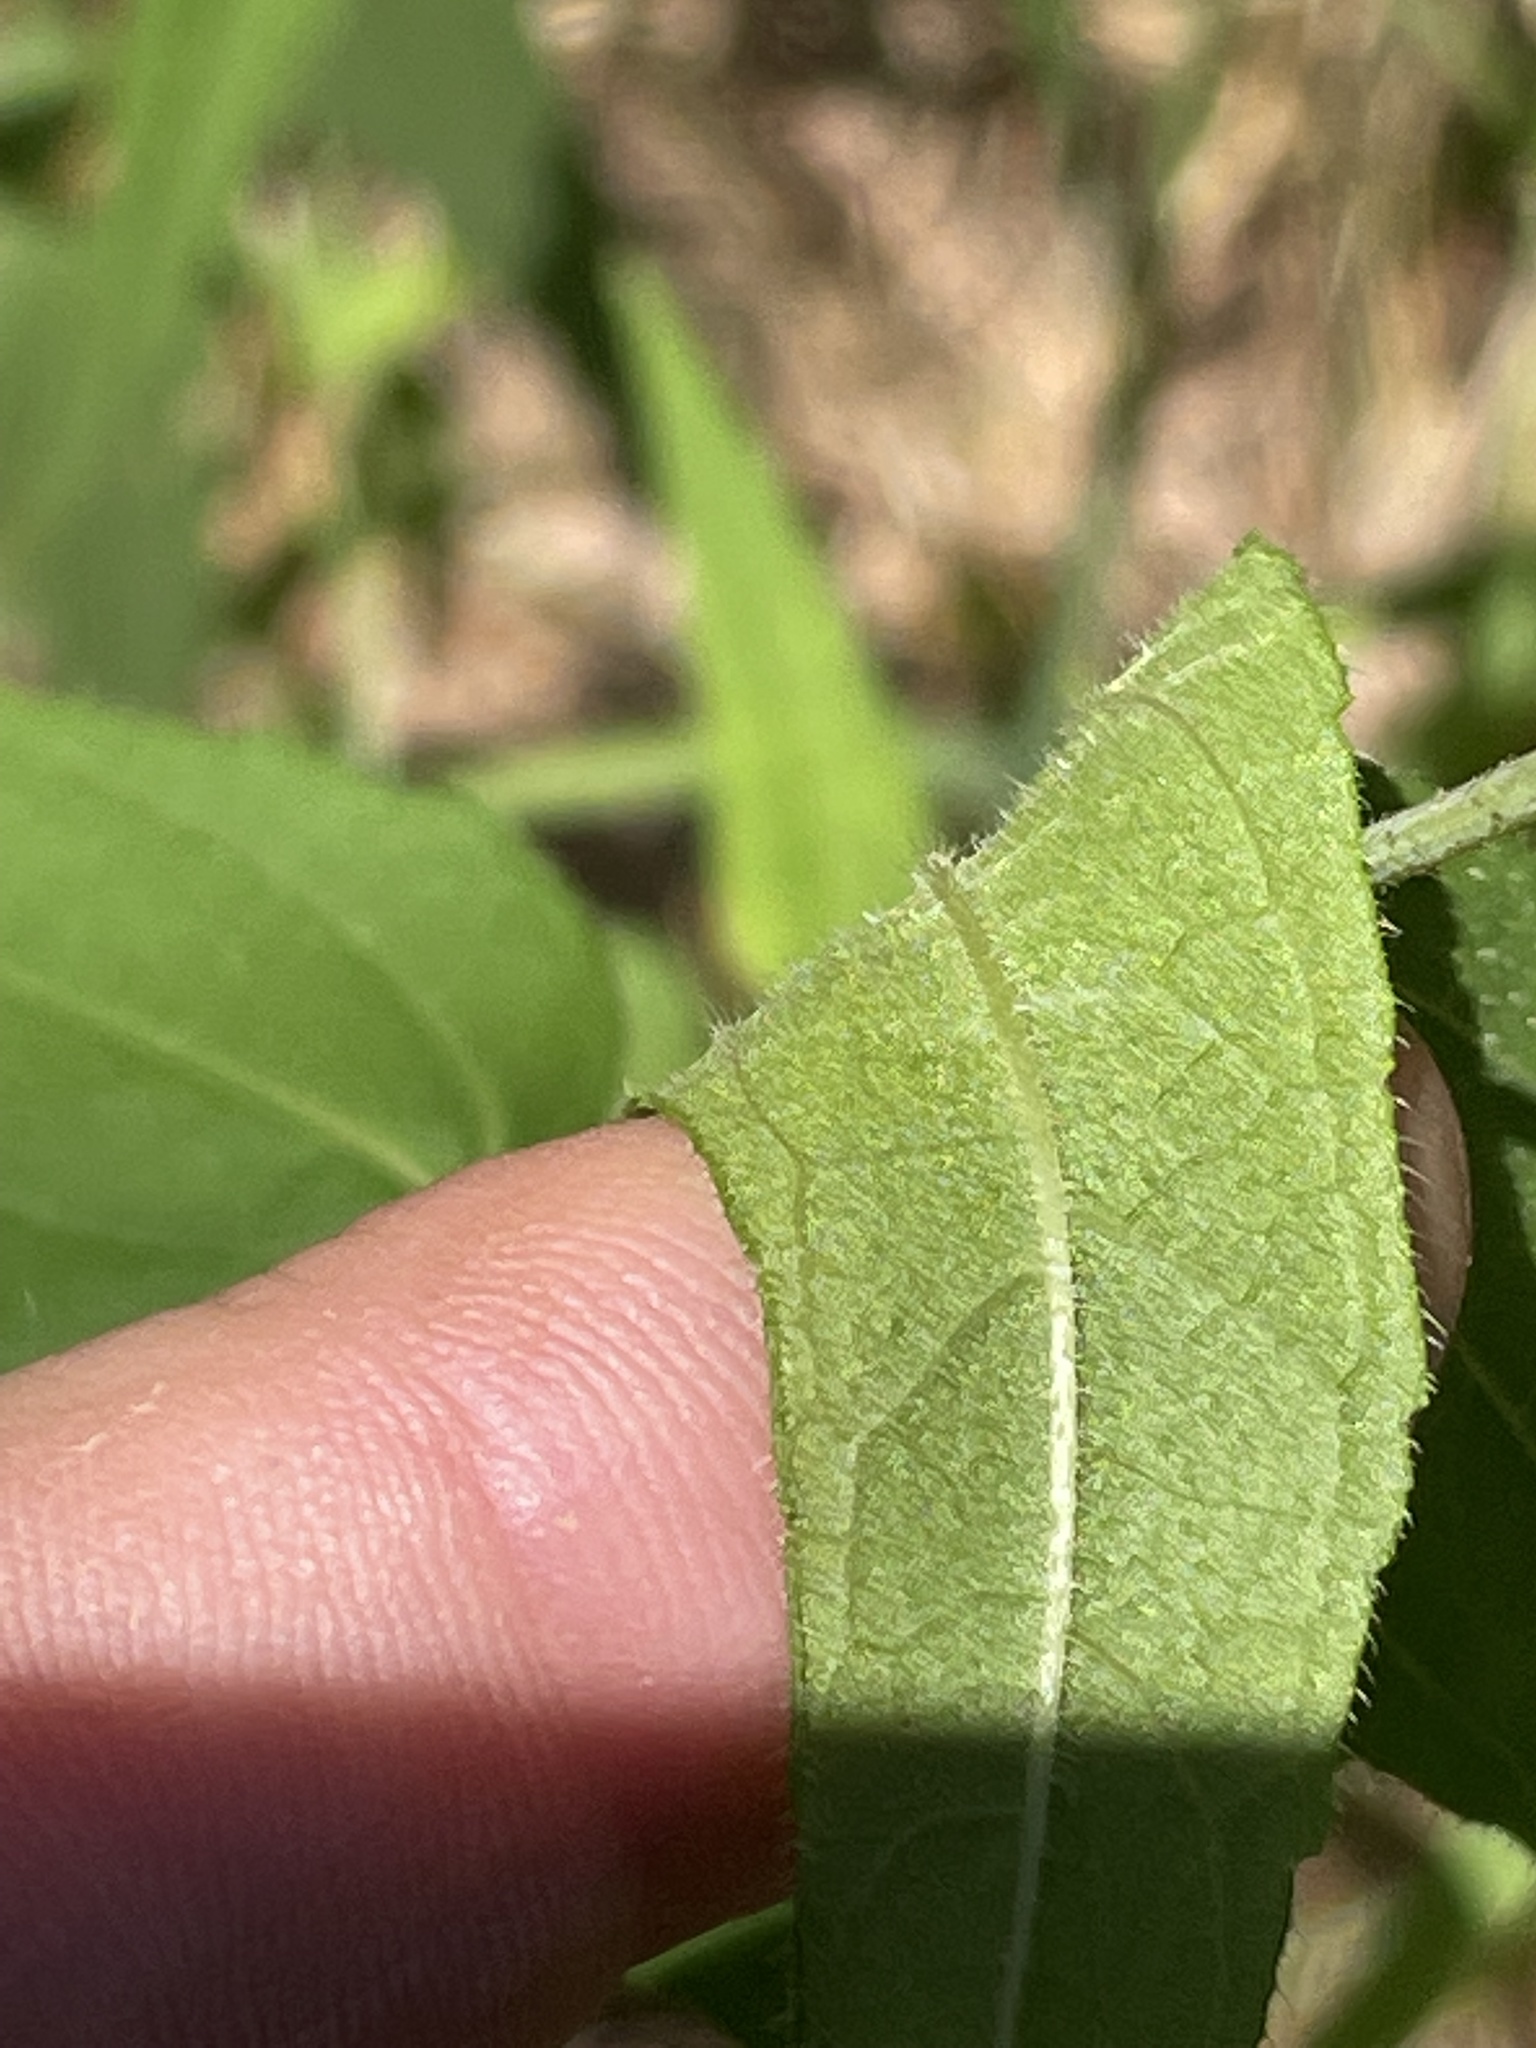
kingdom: Plantae
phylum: Tracheophyta
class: Magnoliopsida
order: Asterales
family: Asteraceae
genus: Helianthus
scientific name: Helianthus divaricatus
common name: Divergent sunflower
